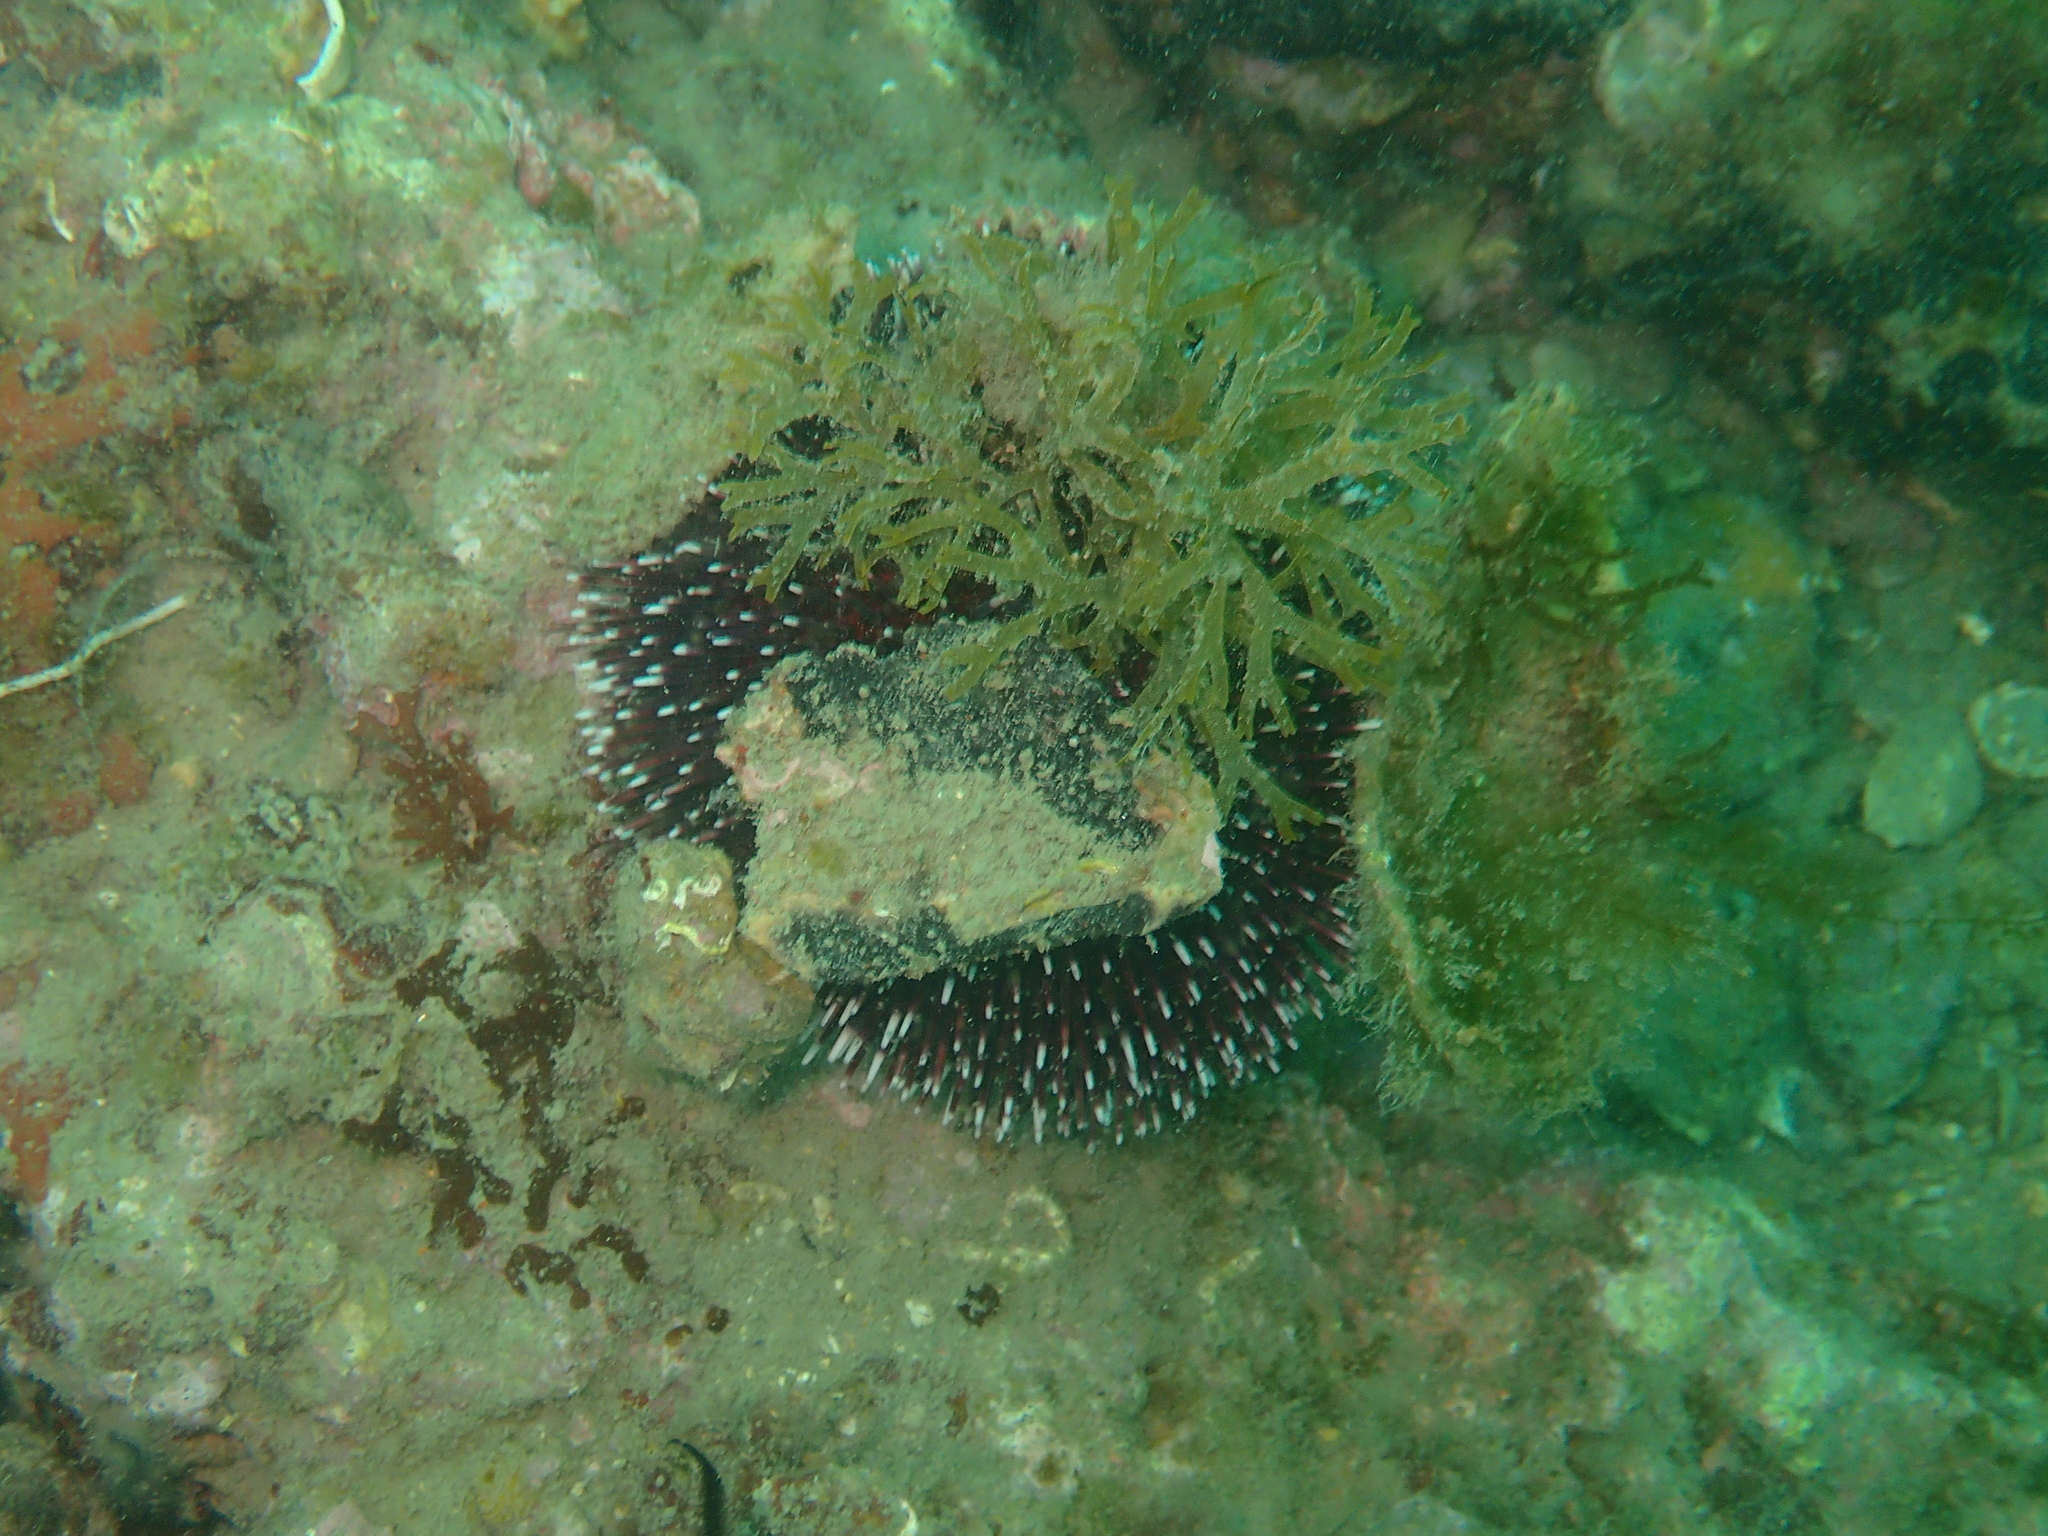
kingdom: Animalia
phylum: Echinodermata
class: Echinoidea
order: Camarodonta
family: Toxopneustidae
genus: Sphaerechinus
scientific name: Sphaerechinus granularis
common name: Violet sea urchin
